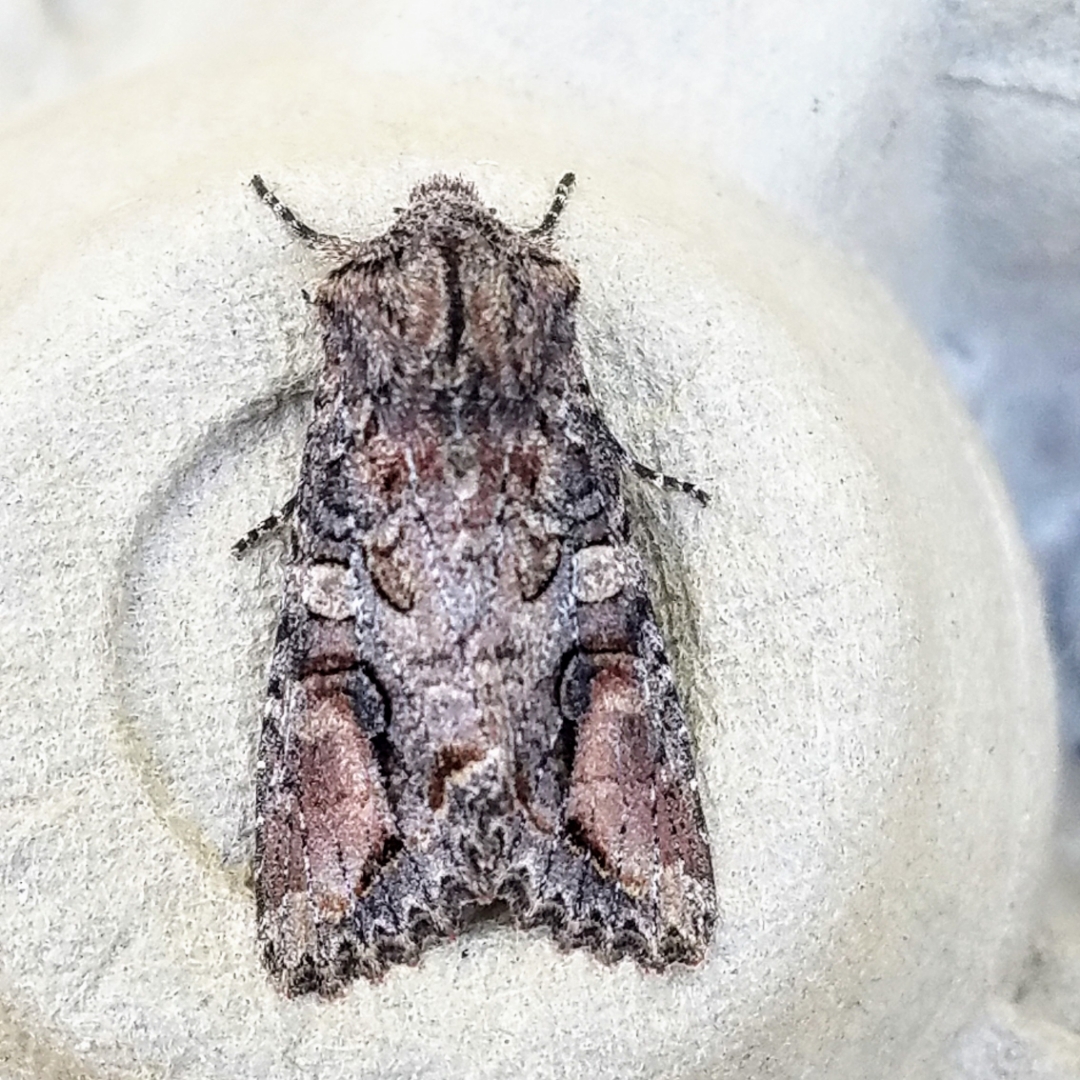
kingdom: Animalia
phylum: Arthropoda
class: Insecta
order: Lepidoptera
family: Noctuidae
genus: Egira
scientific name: Egira perlubens
